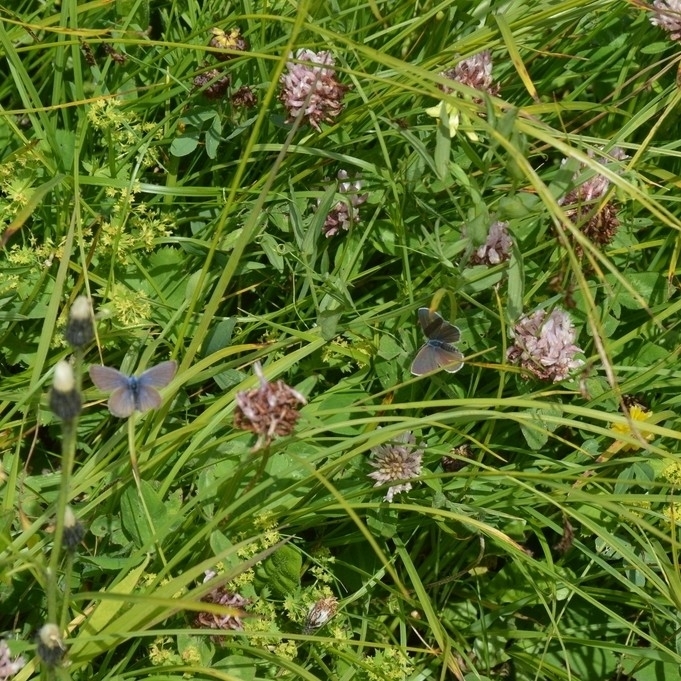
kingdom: Plantae
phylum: Tracheophyta
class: Magnoliopsida
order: Fabales
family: Fabaceae
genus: Trifolium
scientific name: Trifolium pratense
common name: Red clover
